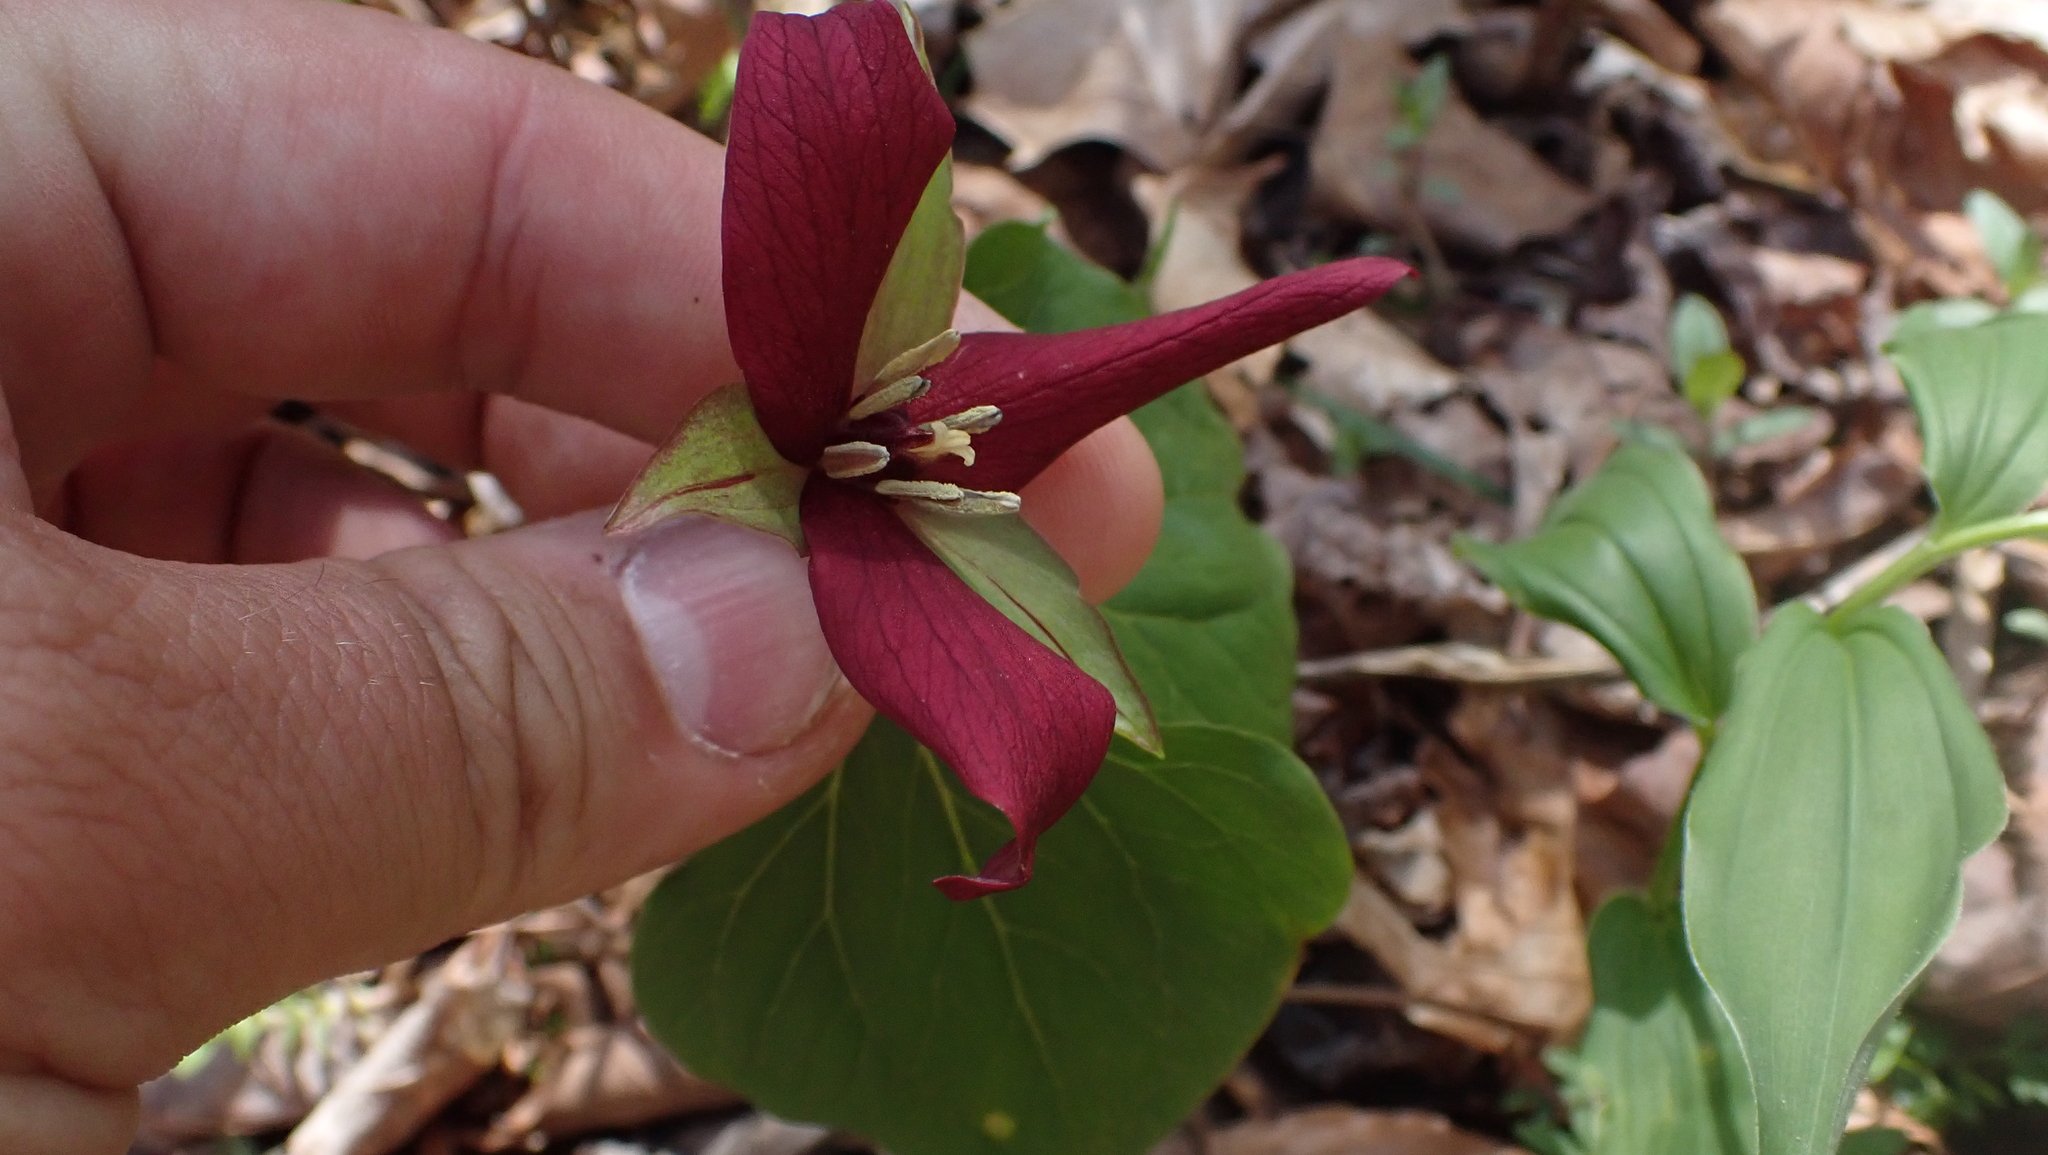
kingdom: Plantae
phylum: Tracheophyta
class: Liliopsida
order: Liliales
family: Melanthiaceae
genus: Trillium
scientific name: Trillium erectum
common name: Purple trillium
